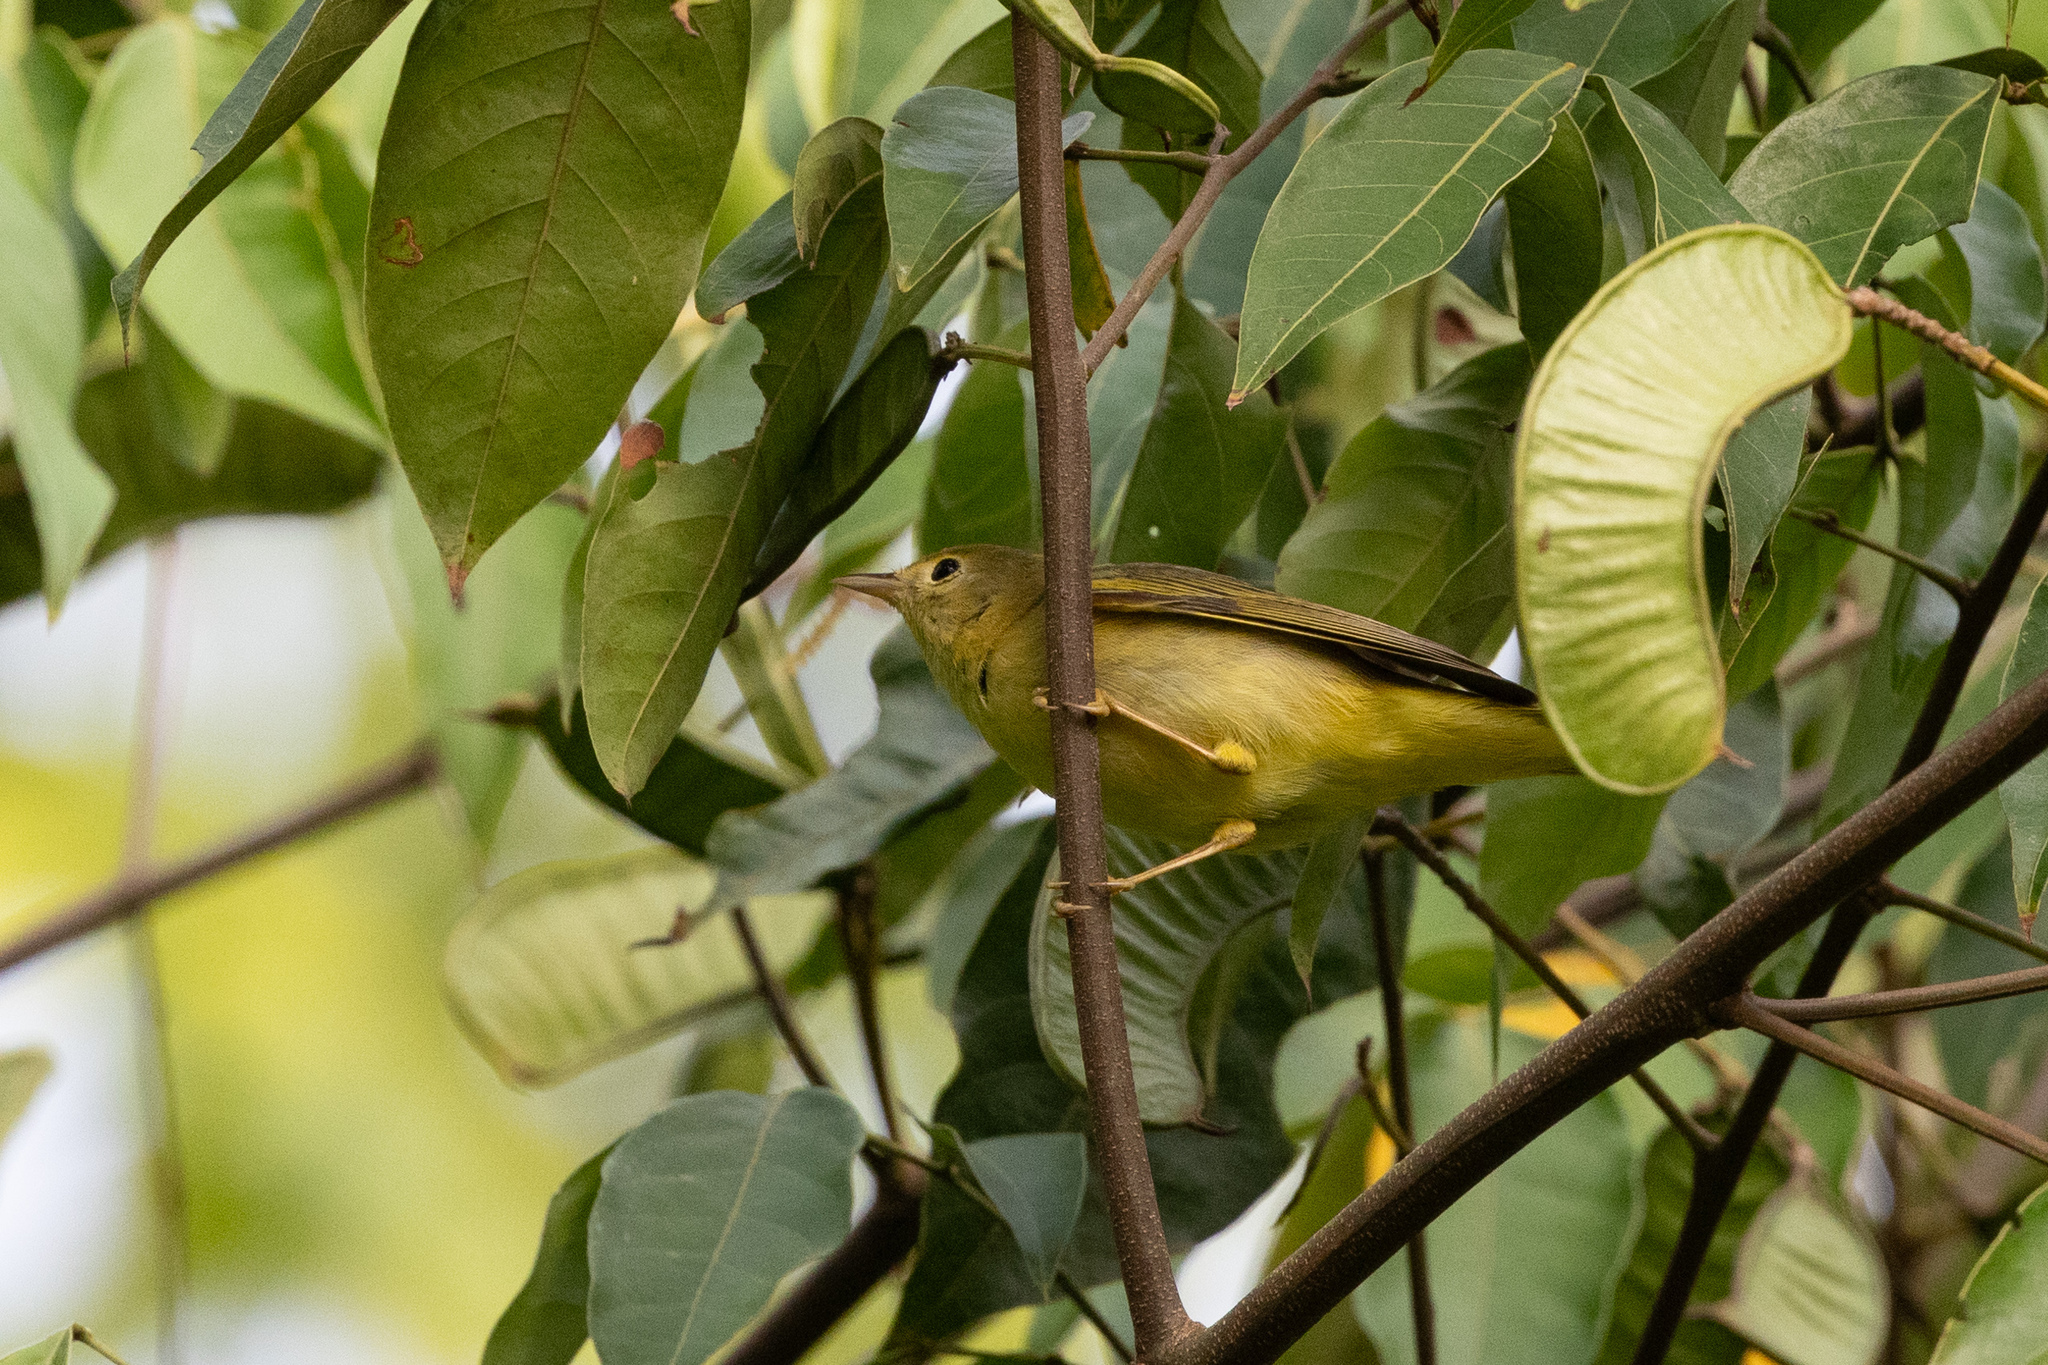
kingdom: Animalia
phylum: Chordata
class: Aves
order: Passeriformes
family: Parulidae
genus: Setophaga
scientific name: Setophaga petechia
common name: Yellow warbler
